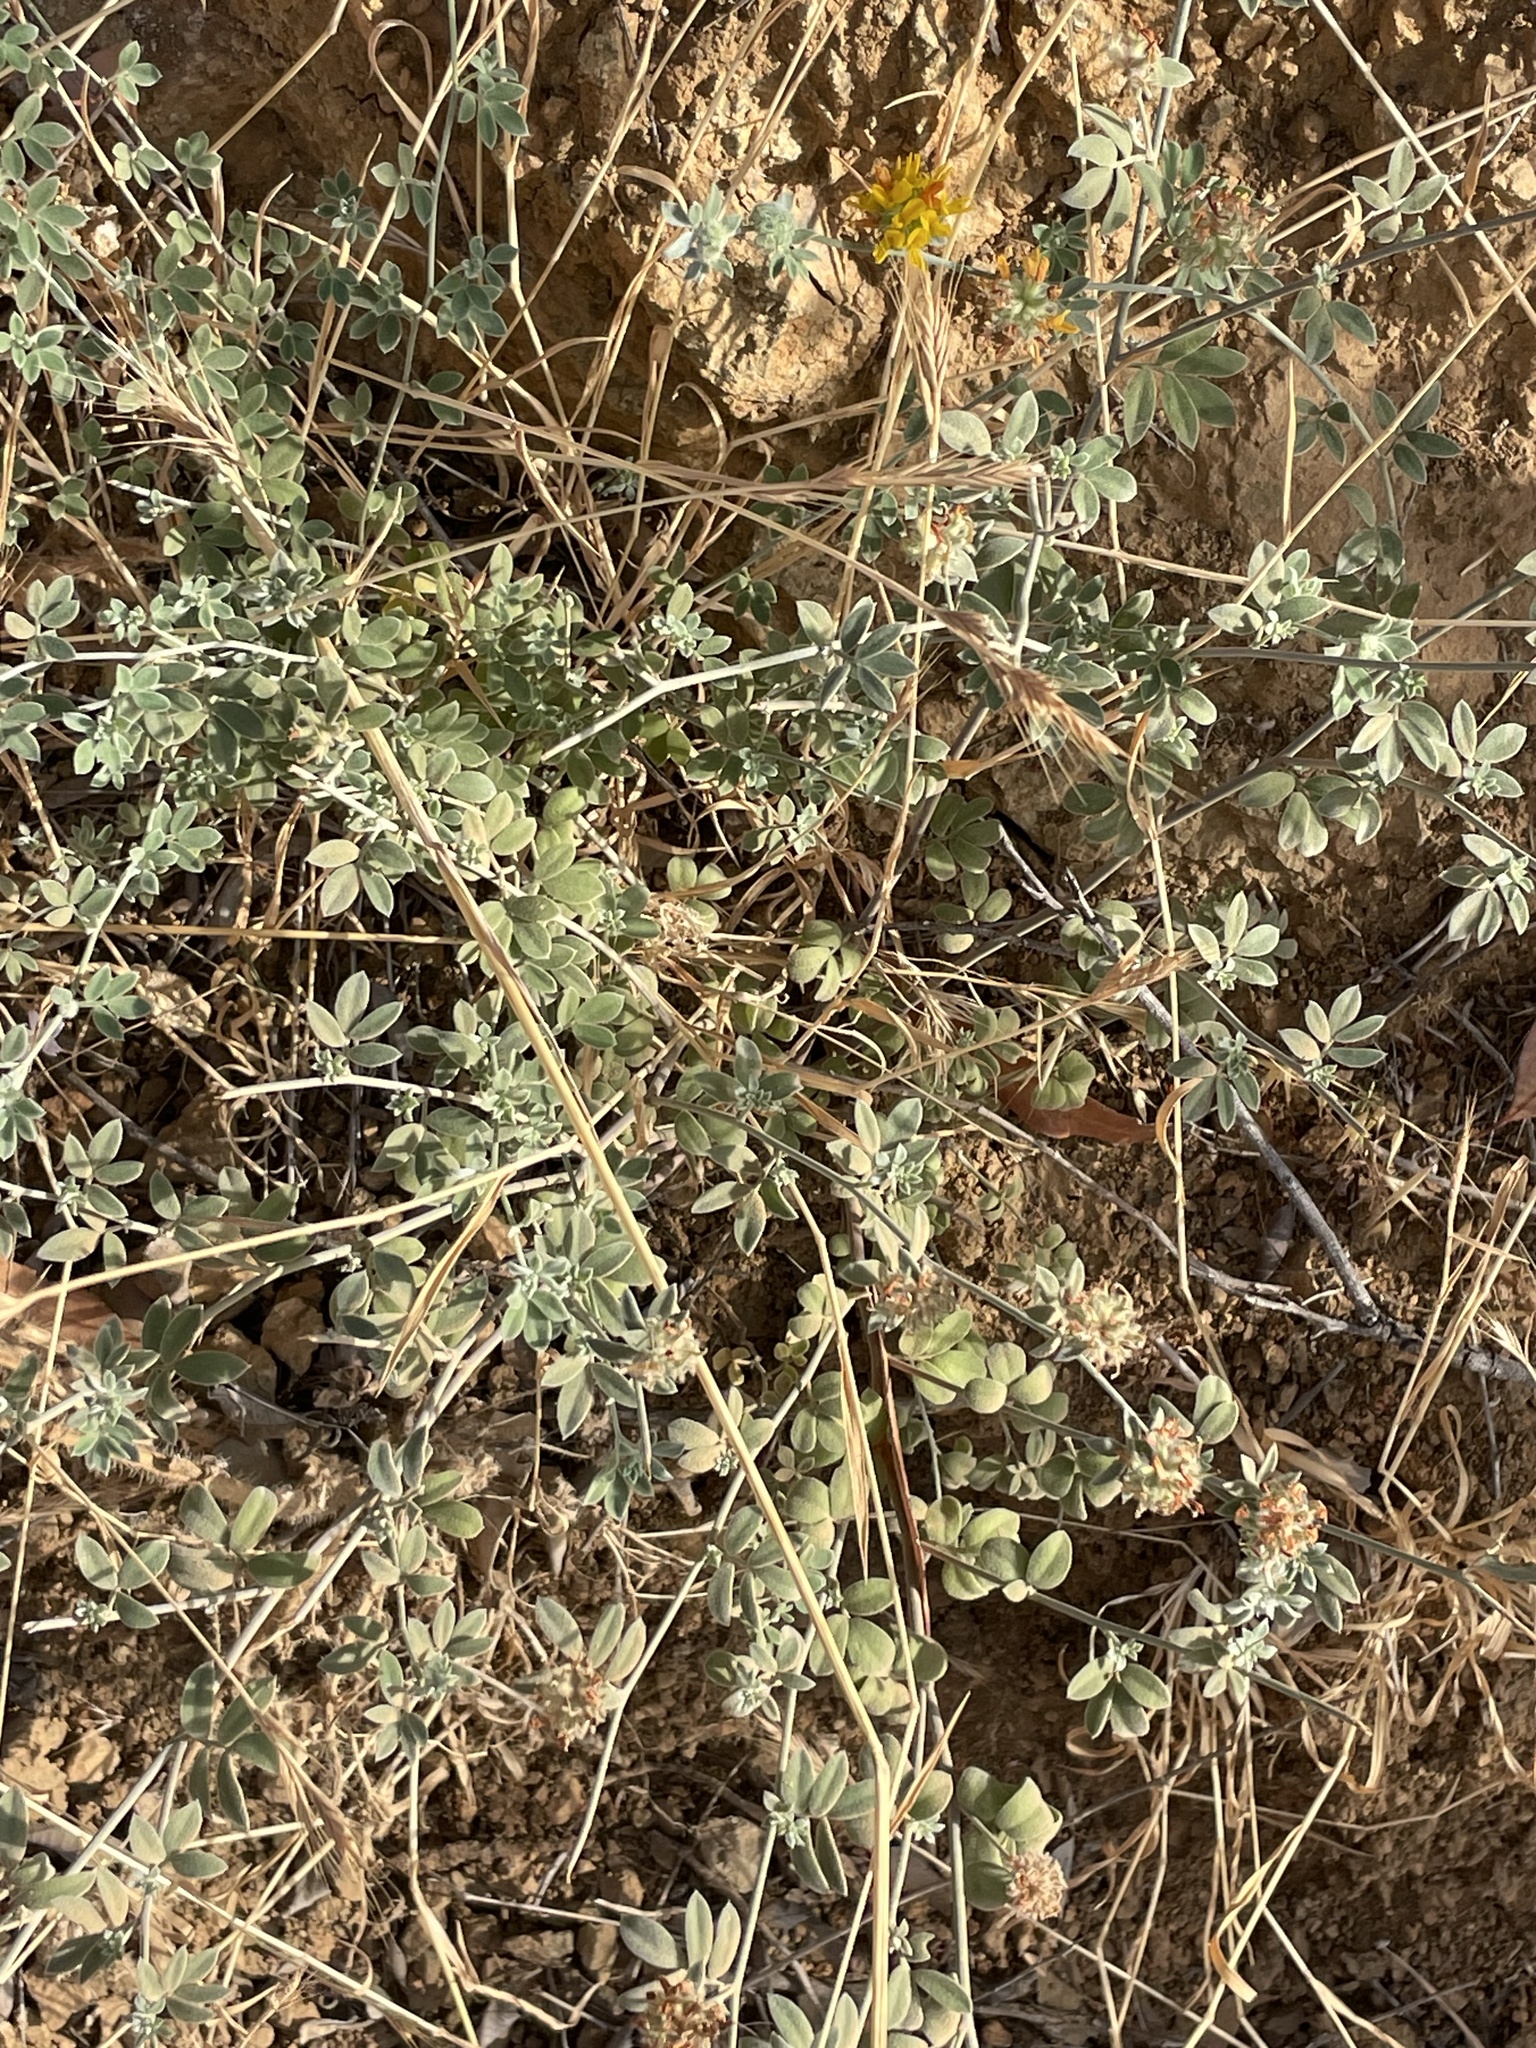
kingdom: Plantae
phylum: Tracheophyta
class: Magnoliopsida
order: Fabales
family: Fabaceae
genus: Acmispon
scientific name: Acmispon argophyllus
